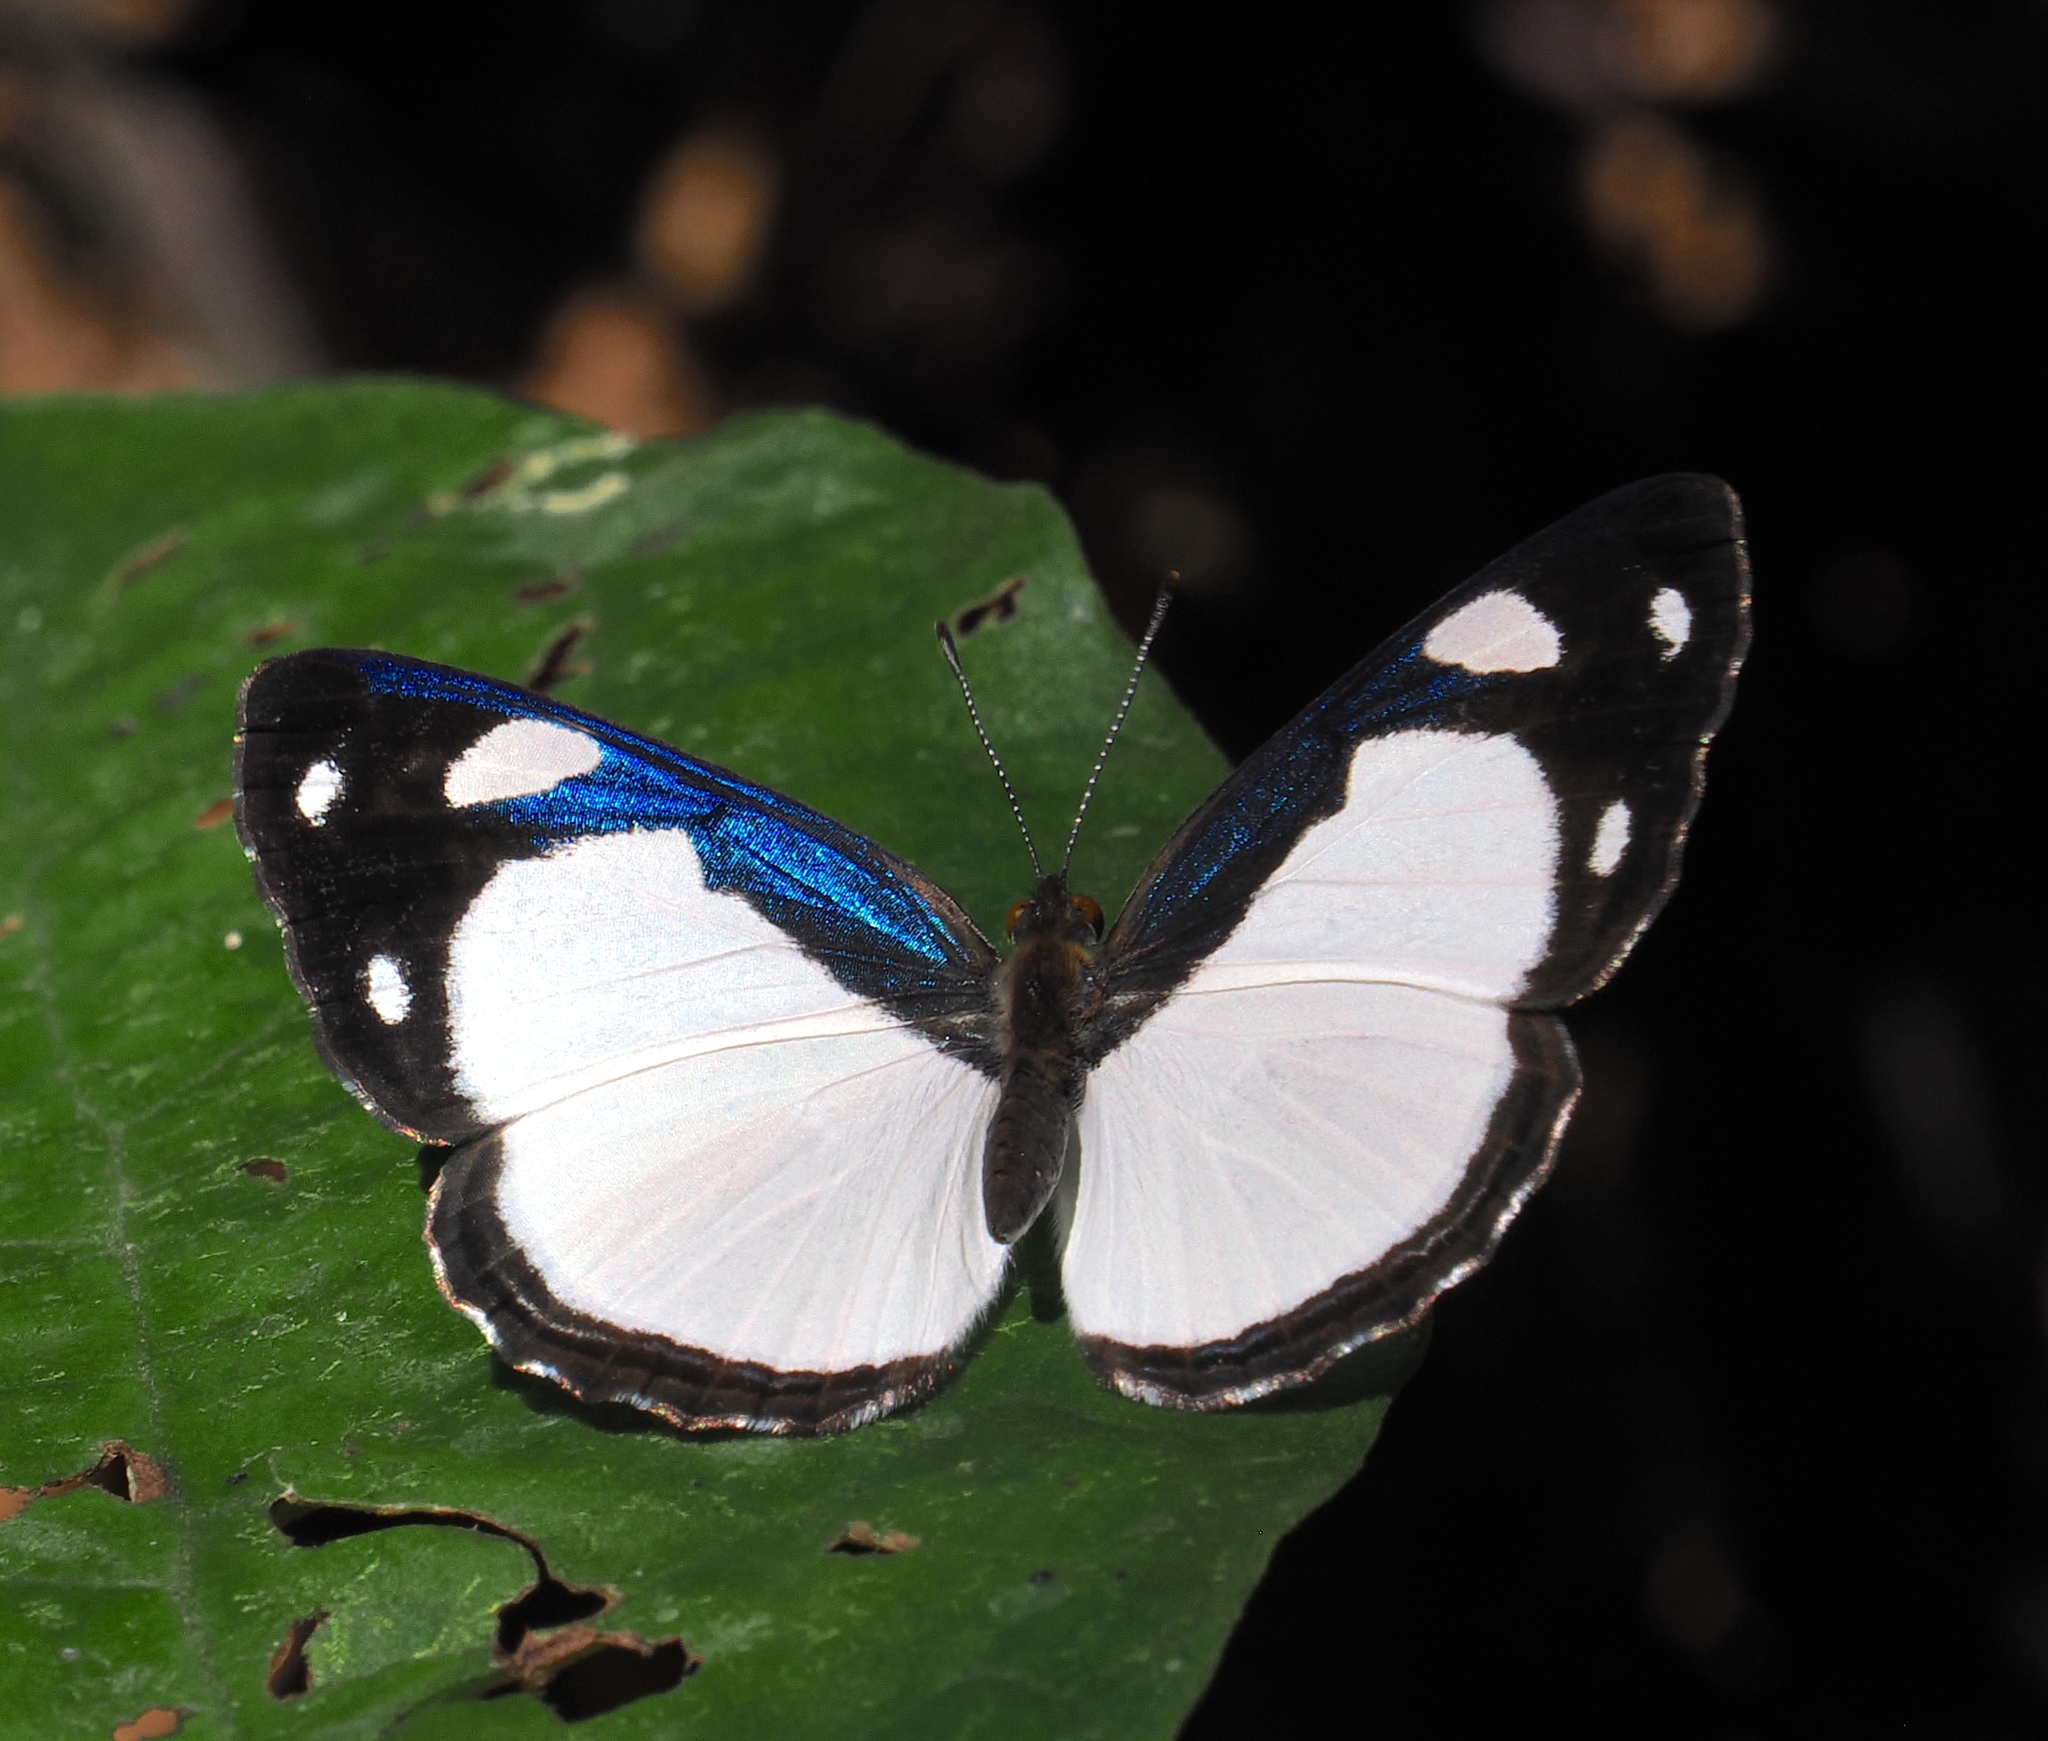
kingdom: Animalia
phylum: Arthropoda
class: Insecta
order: Lepidoptera
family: Nymphalidae
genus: Dynamine
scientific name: Dynamine athemon
